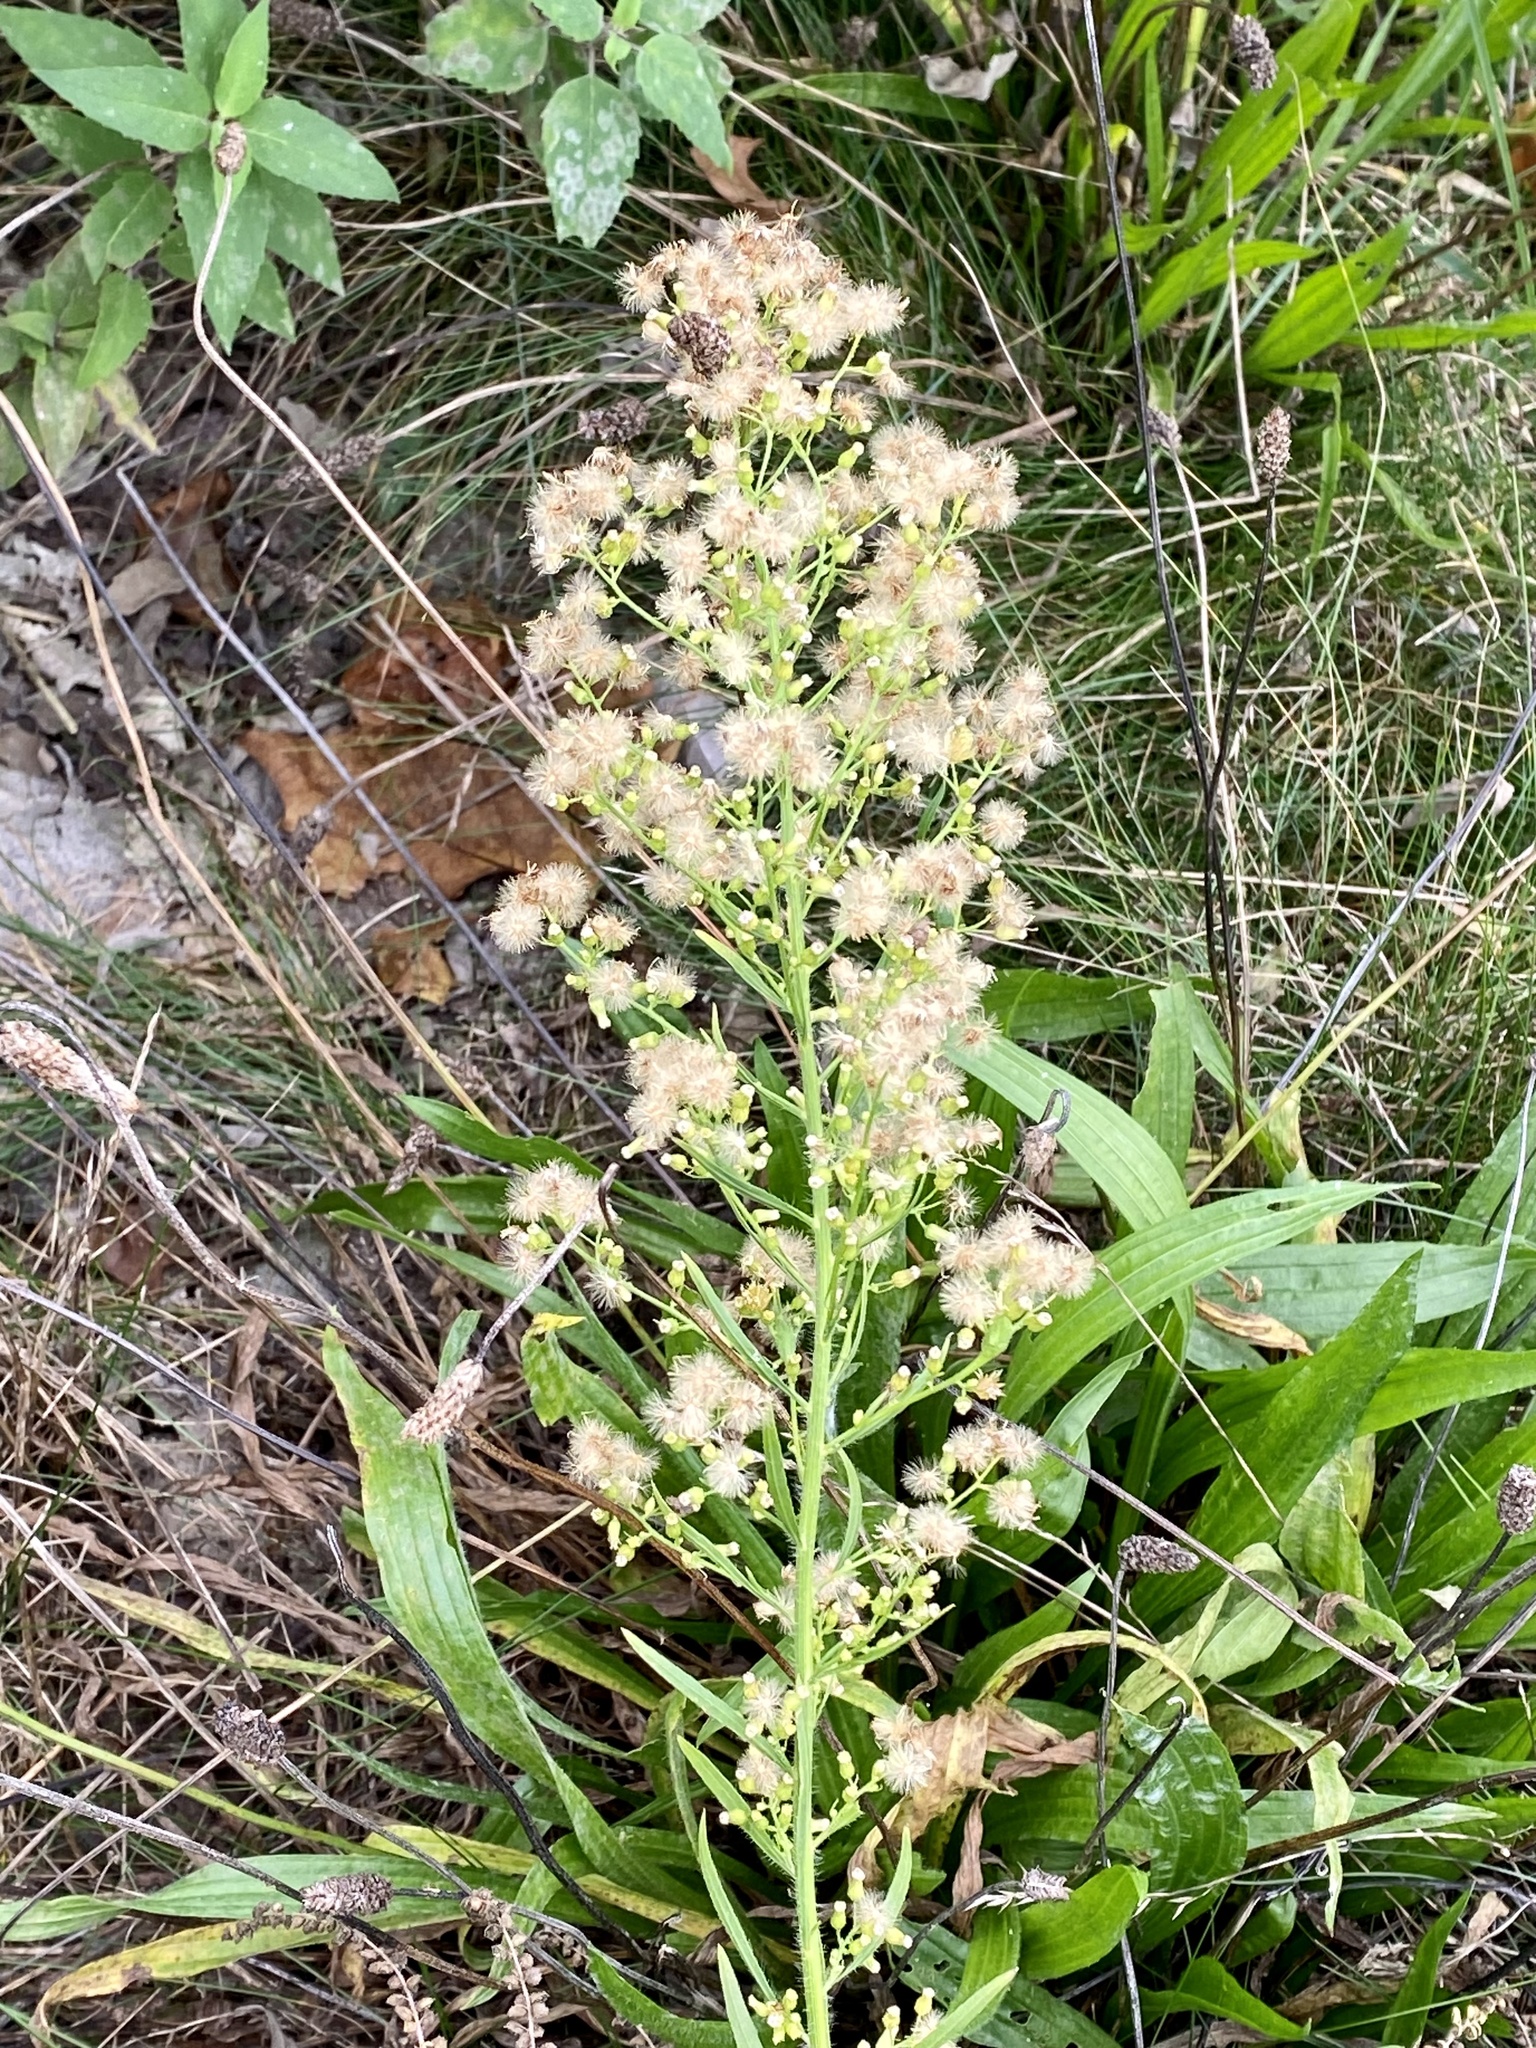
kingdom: Plantae
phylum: Tracheophyta
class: Magnoliopsida
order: Asterales
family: Asteraceae
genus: Erigeron
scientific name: Erigeron canadensis
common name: Canadian fleabane
